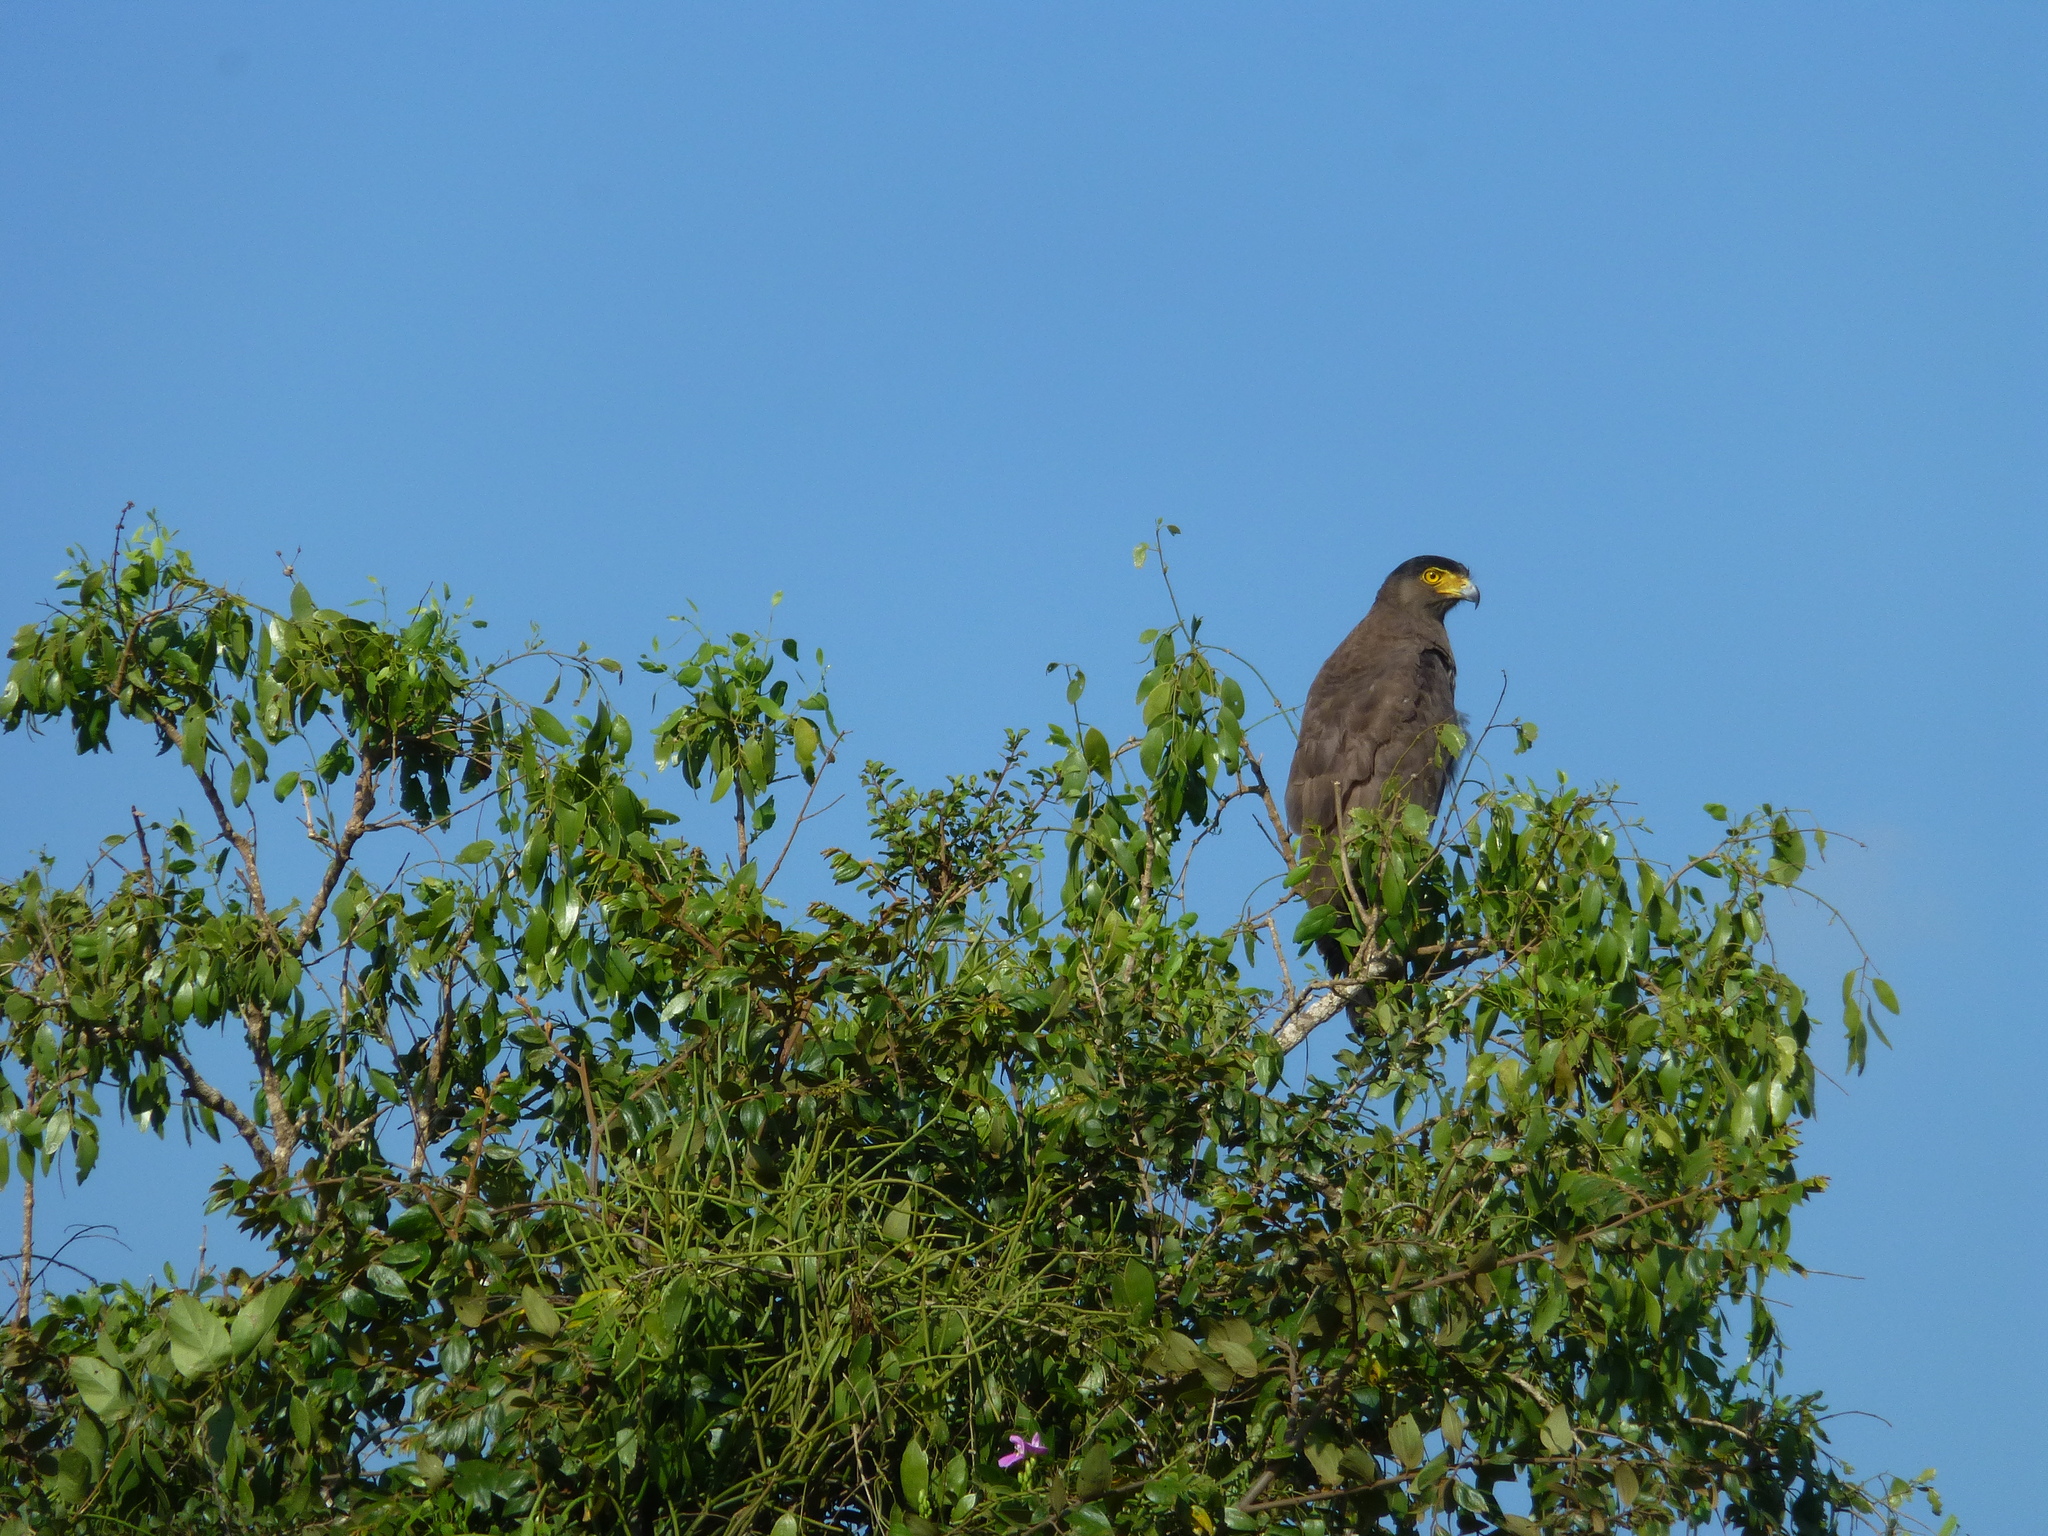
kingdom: Animalia
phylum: Chordata
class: Aves
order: Accipitriformes
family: Accipitridae
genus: Spilornis
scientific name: Spilornis cheela
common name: Crested serpent eagle
